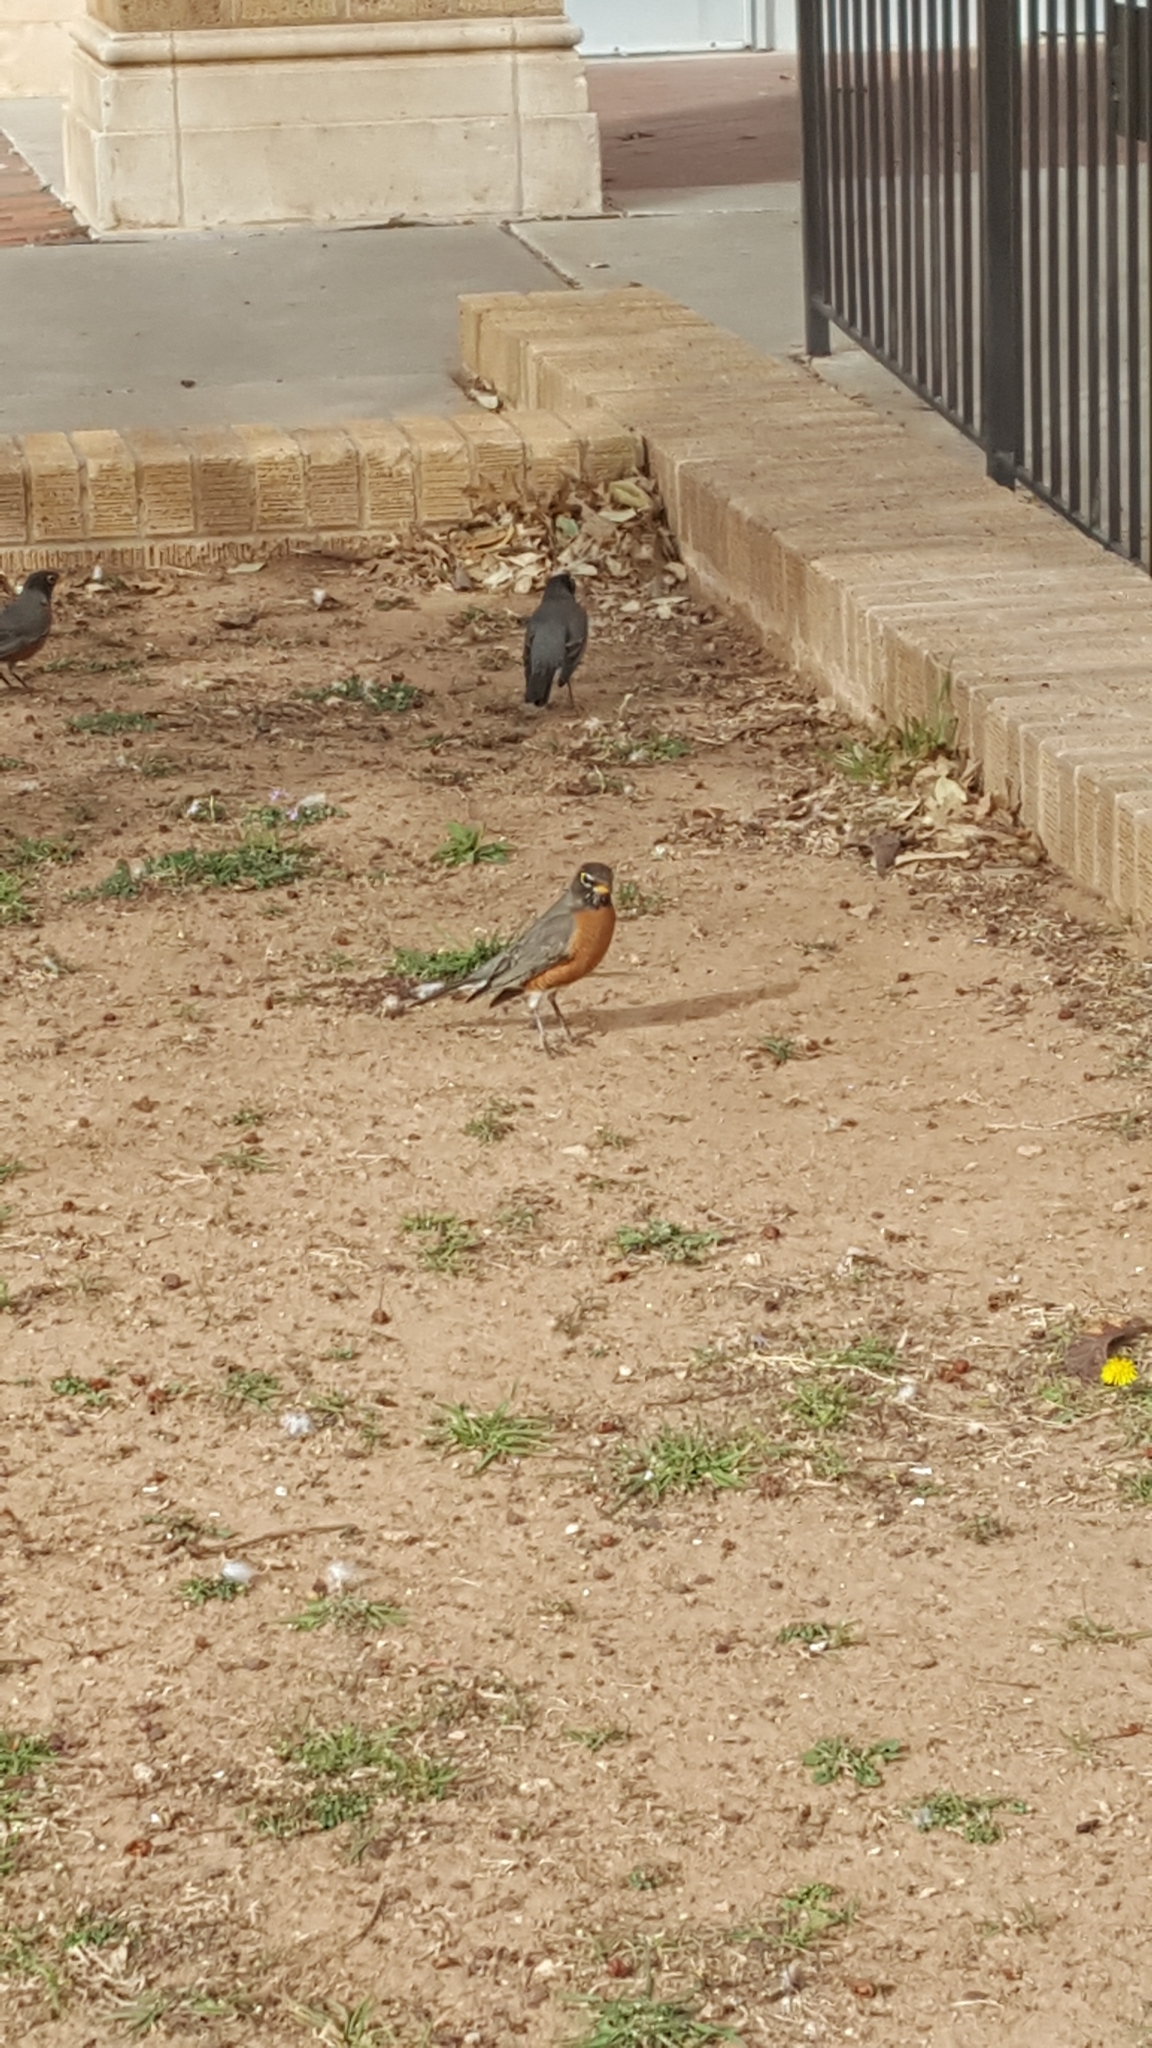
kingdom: Animalia
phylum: Chordata
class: Aves
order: Passeriformes
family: Turdidae
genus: Turdus
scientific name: Turdus migratorius
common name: American robin
